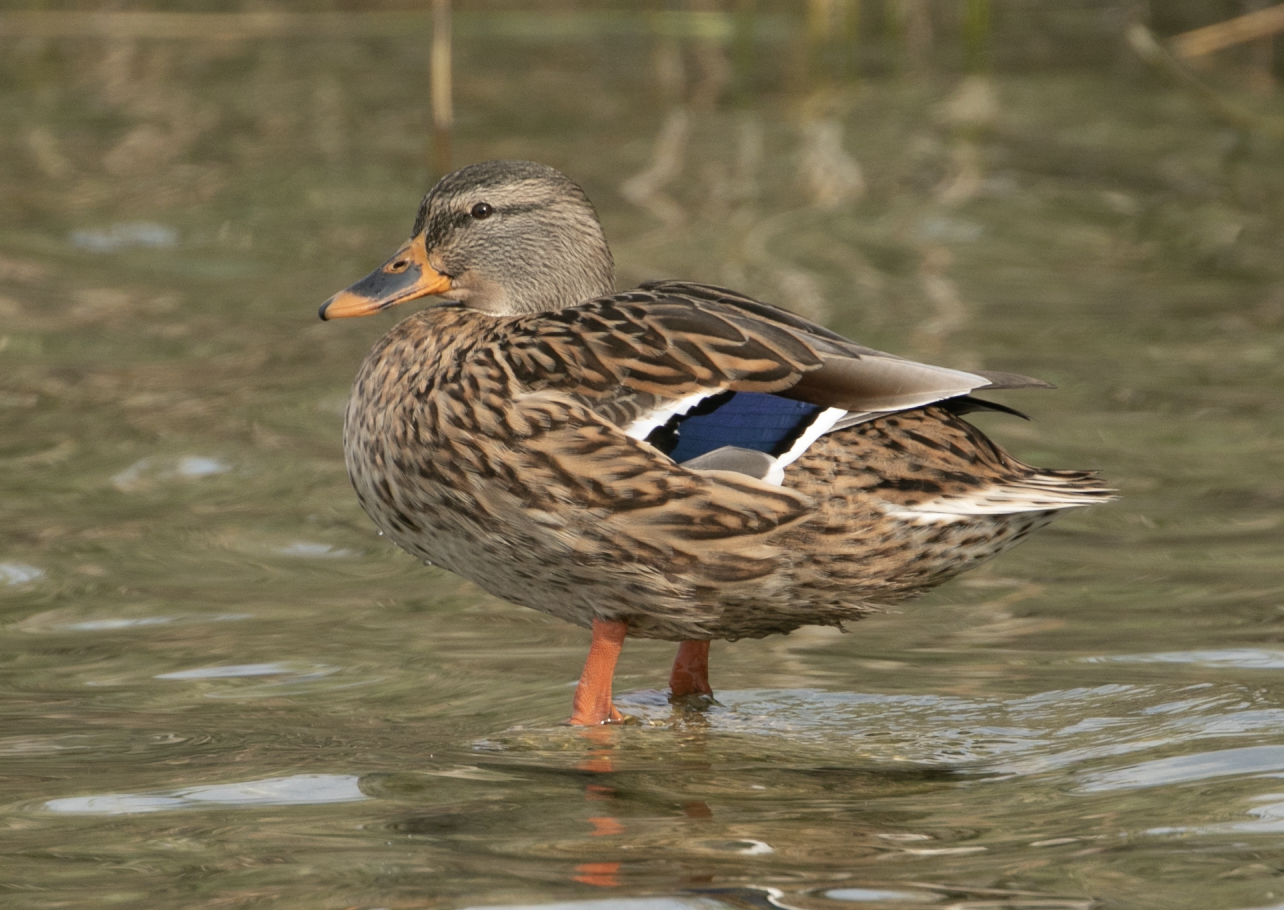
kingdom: Animalia
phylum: Chordata
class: Aves
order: Anseriformes
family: Anatidae
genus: Anas
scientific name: Anas platyrhynchos
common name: Mallard
